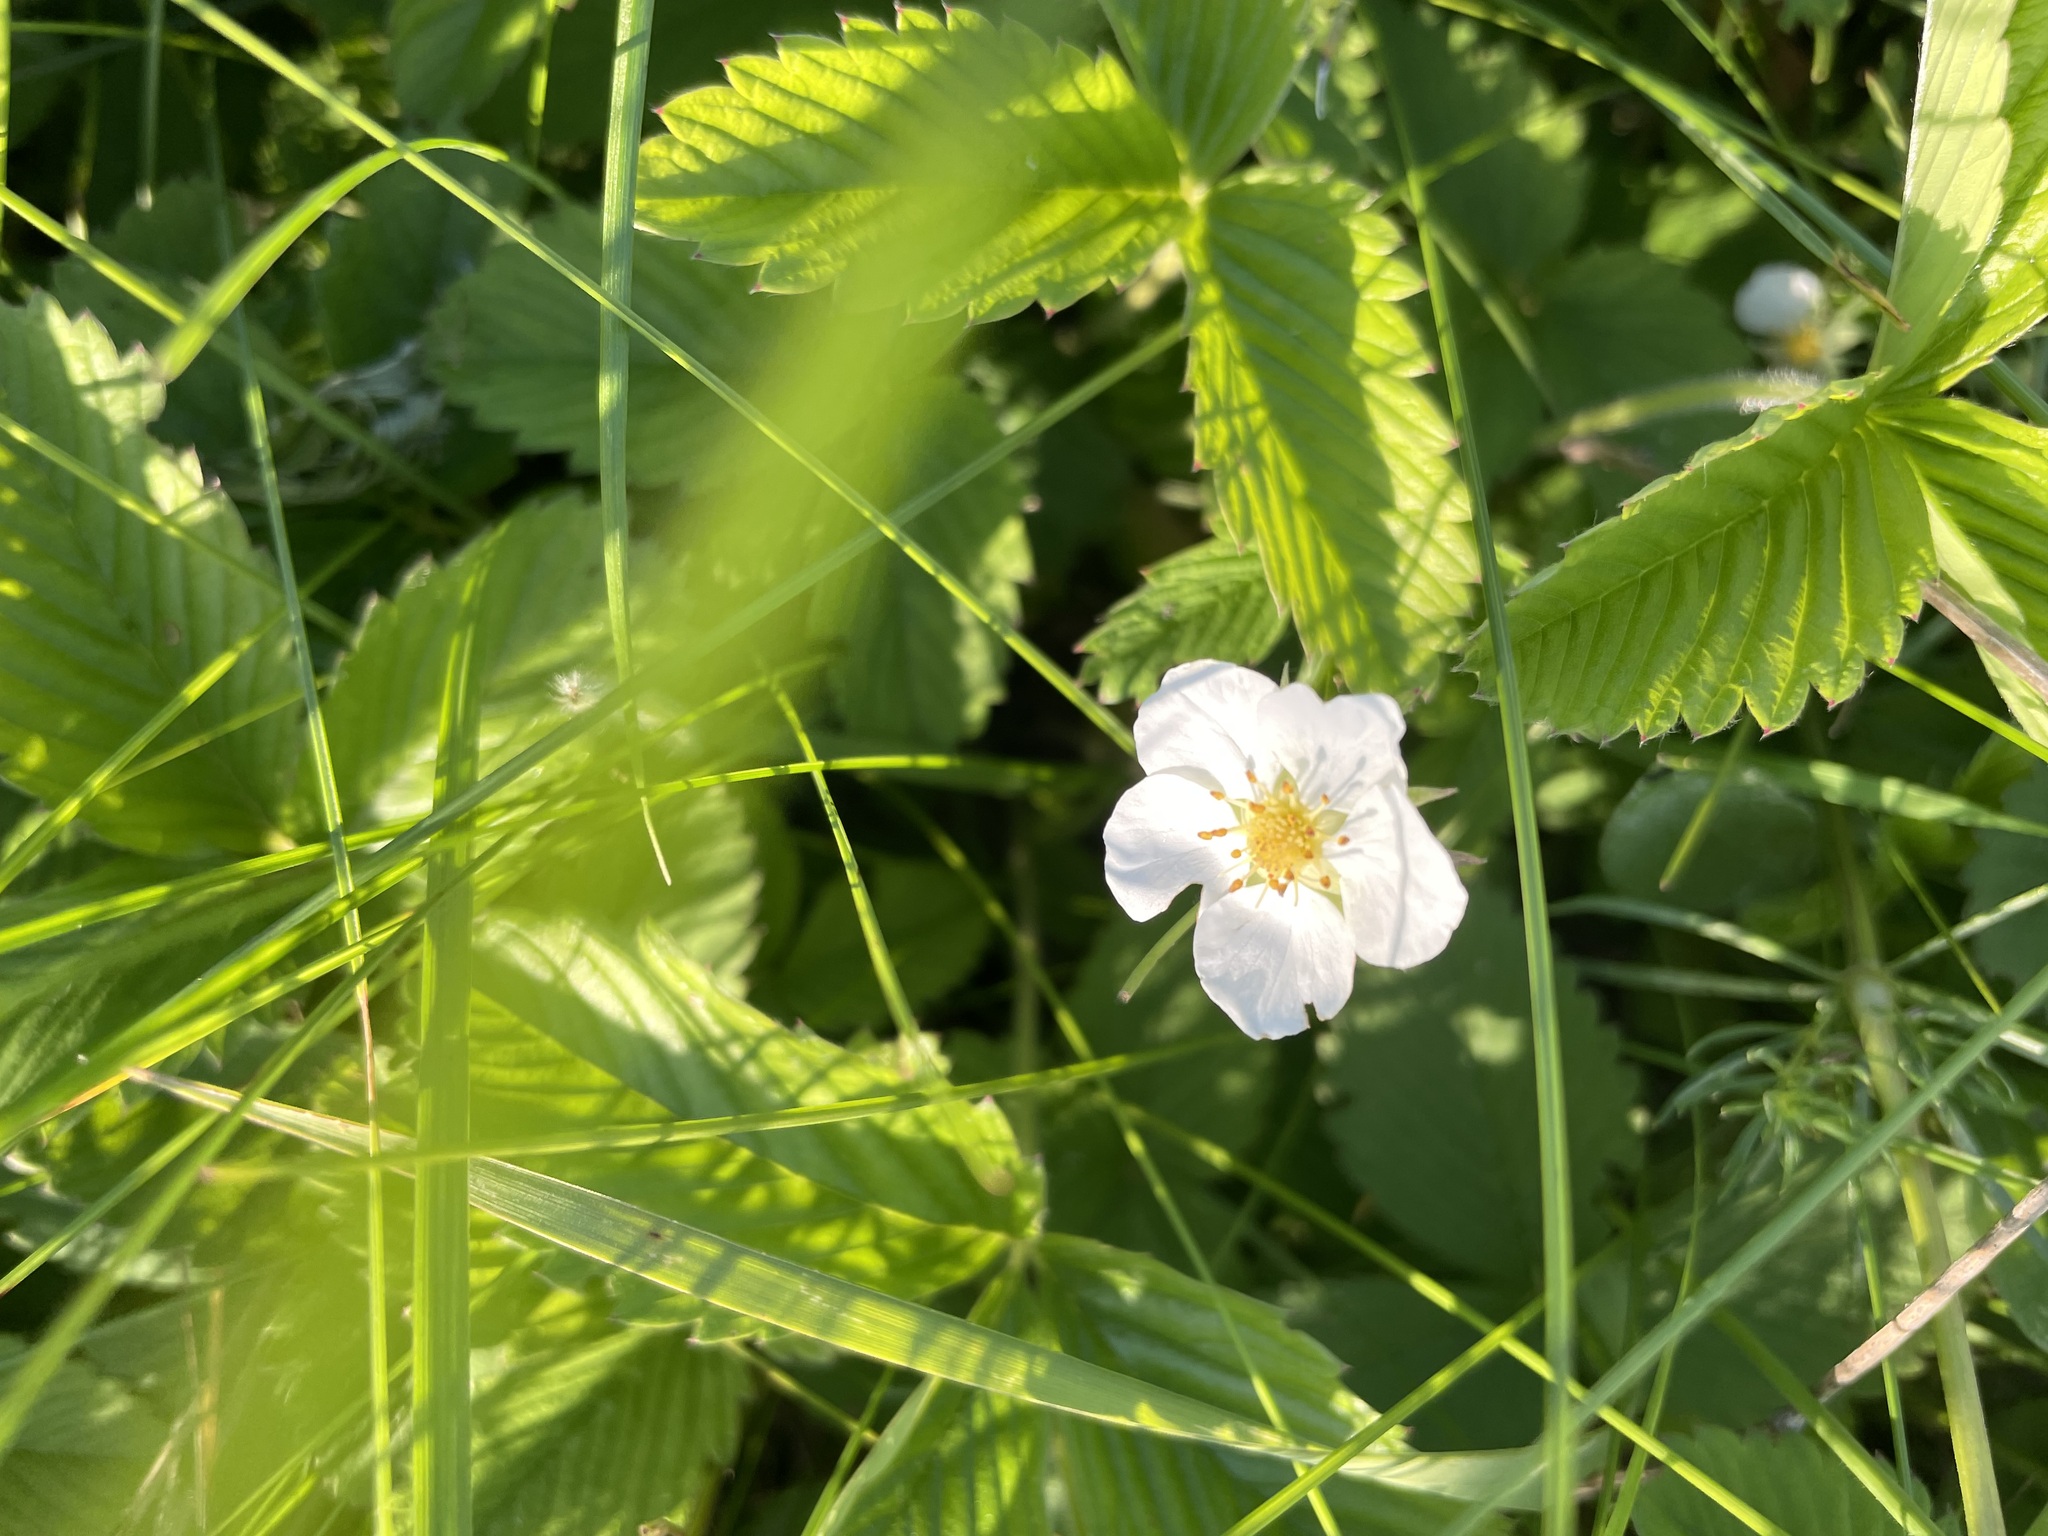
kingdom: Plantae
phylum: Tracheophyta
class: Magnoliopsida
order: Rosales
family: Rosaceae
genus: Fragaria
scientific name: Fragaria viridis
